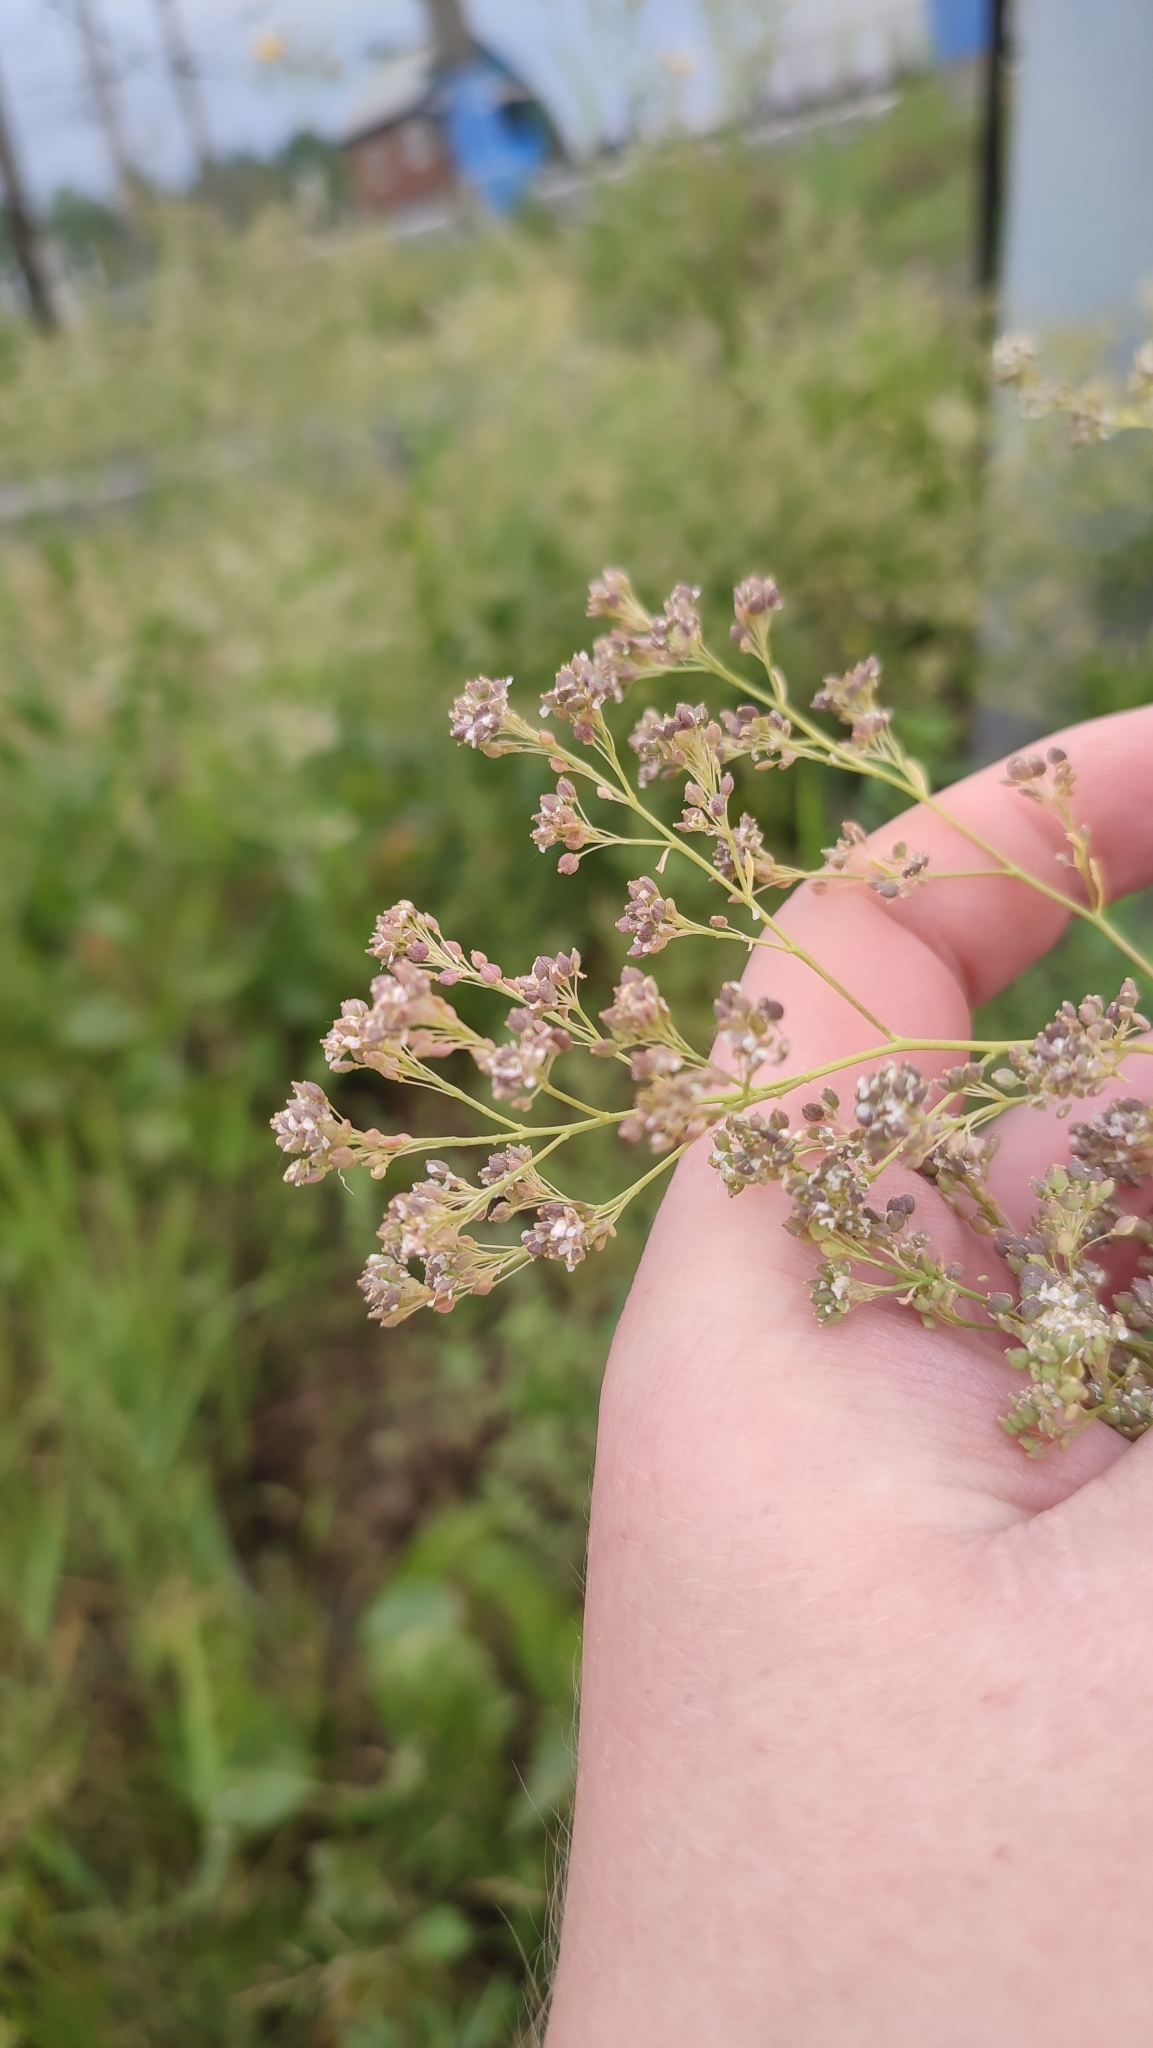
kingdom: Plantae
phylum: Tracheophyta
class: Magnoliopsida
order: Brassicales
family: Brassicaceae
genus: Lepidium
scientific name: Lepidium latifolium
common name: Dittander
